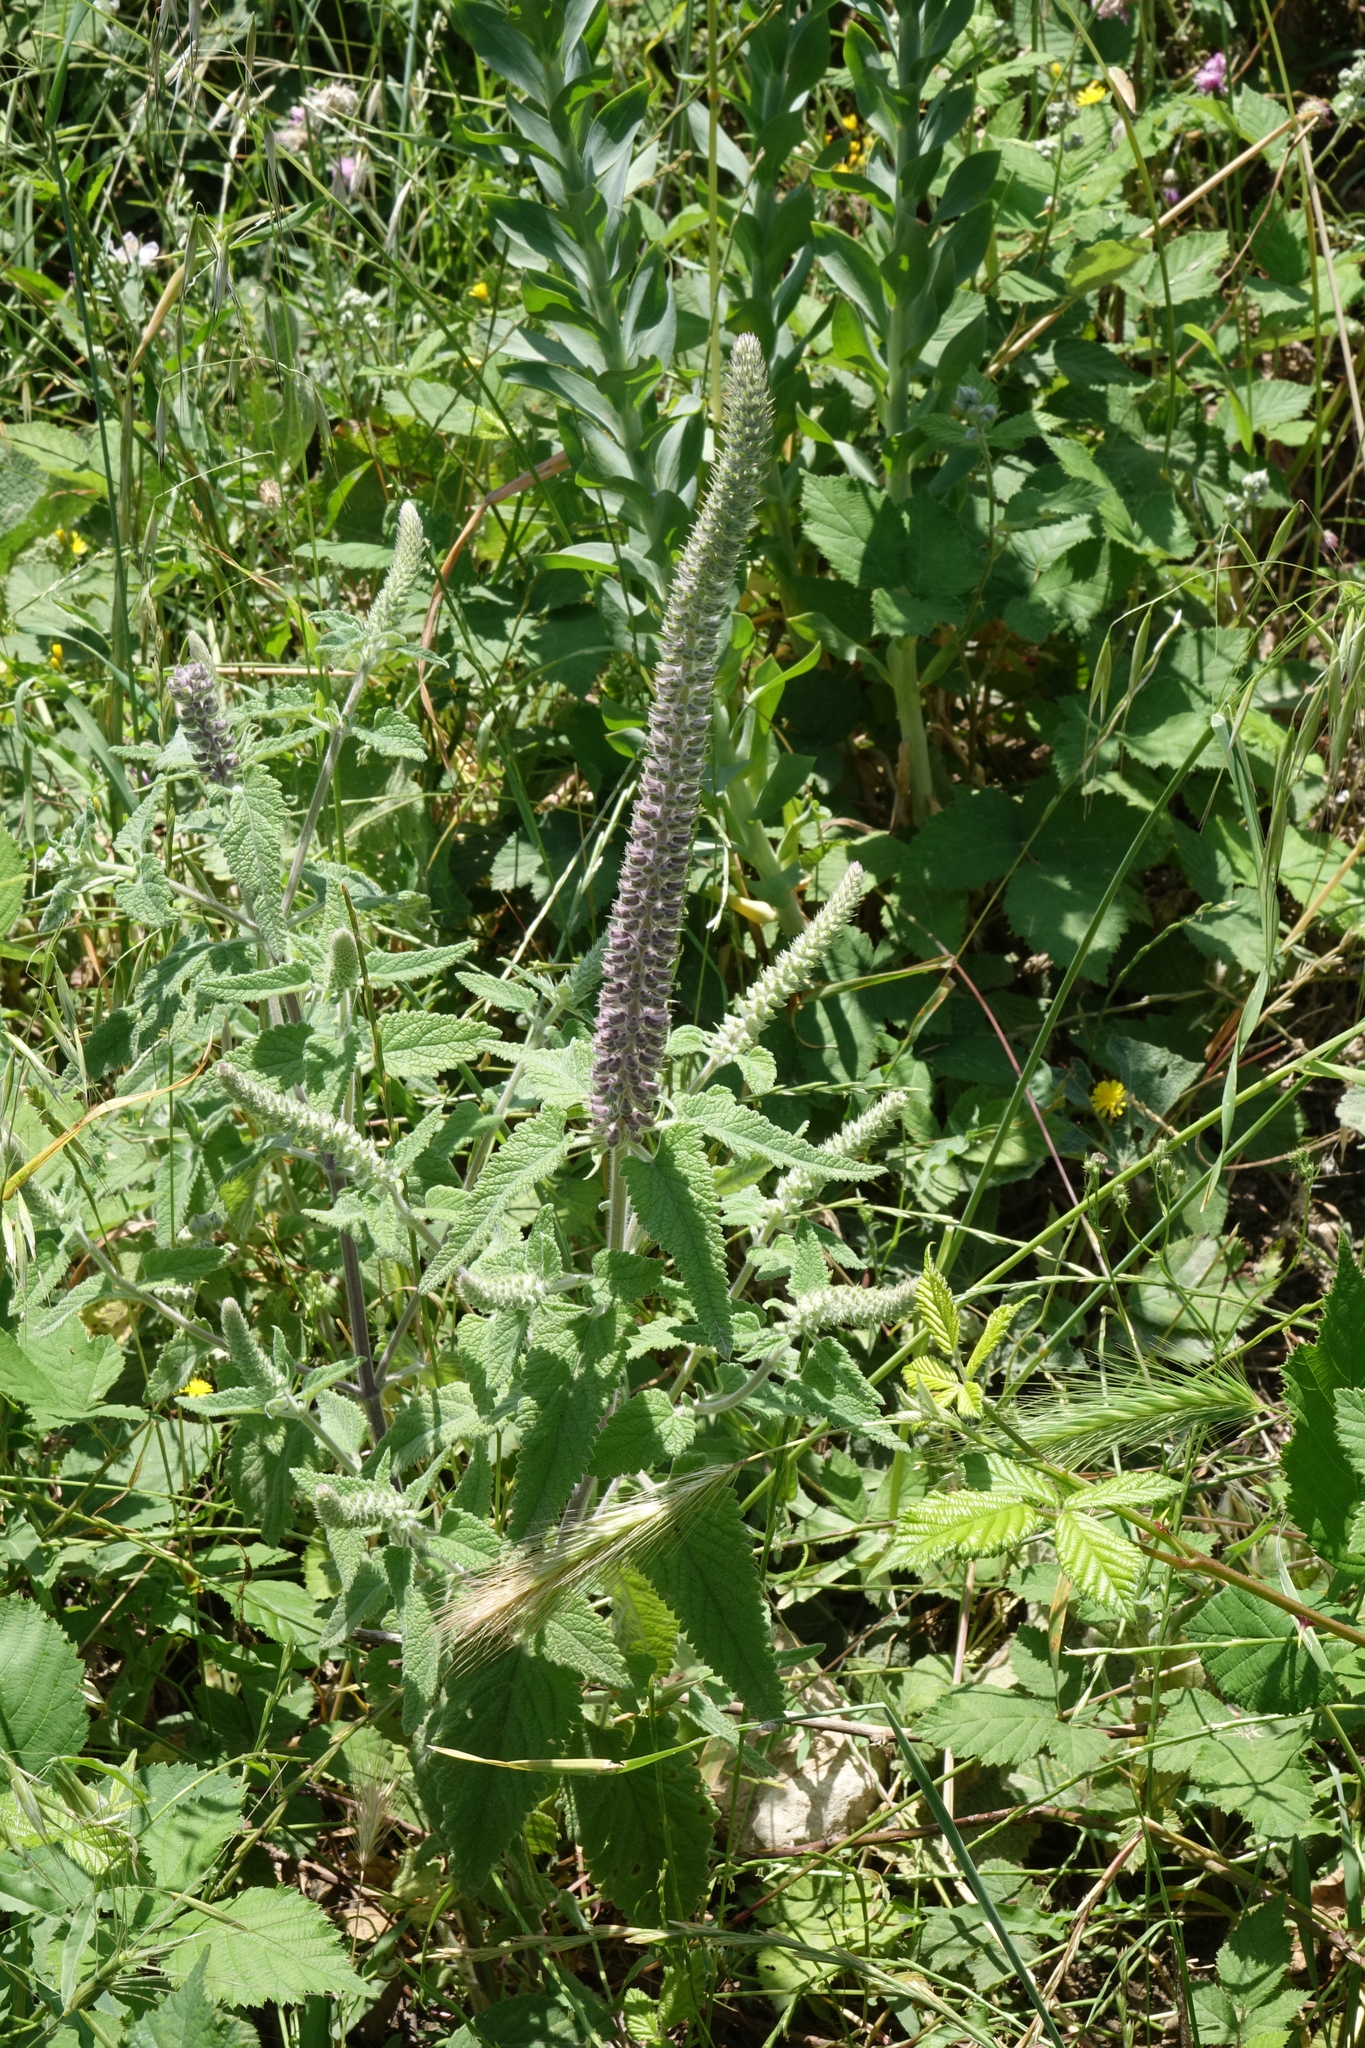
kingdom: Plantae
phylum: Tracheophyta
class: Magnoliopsida
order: Lamiales
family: Lamiaceae
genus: Teucrium
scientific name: Teucrium hircanicum
